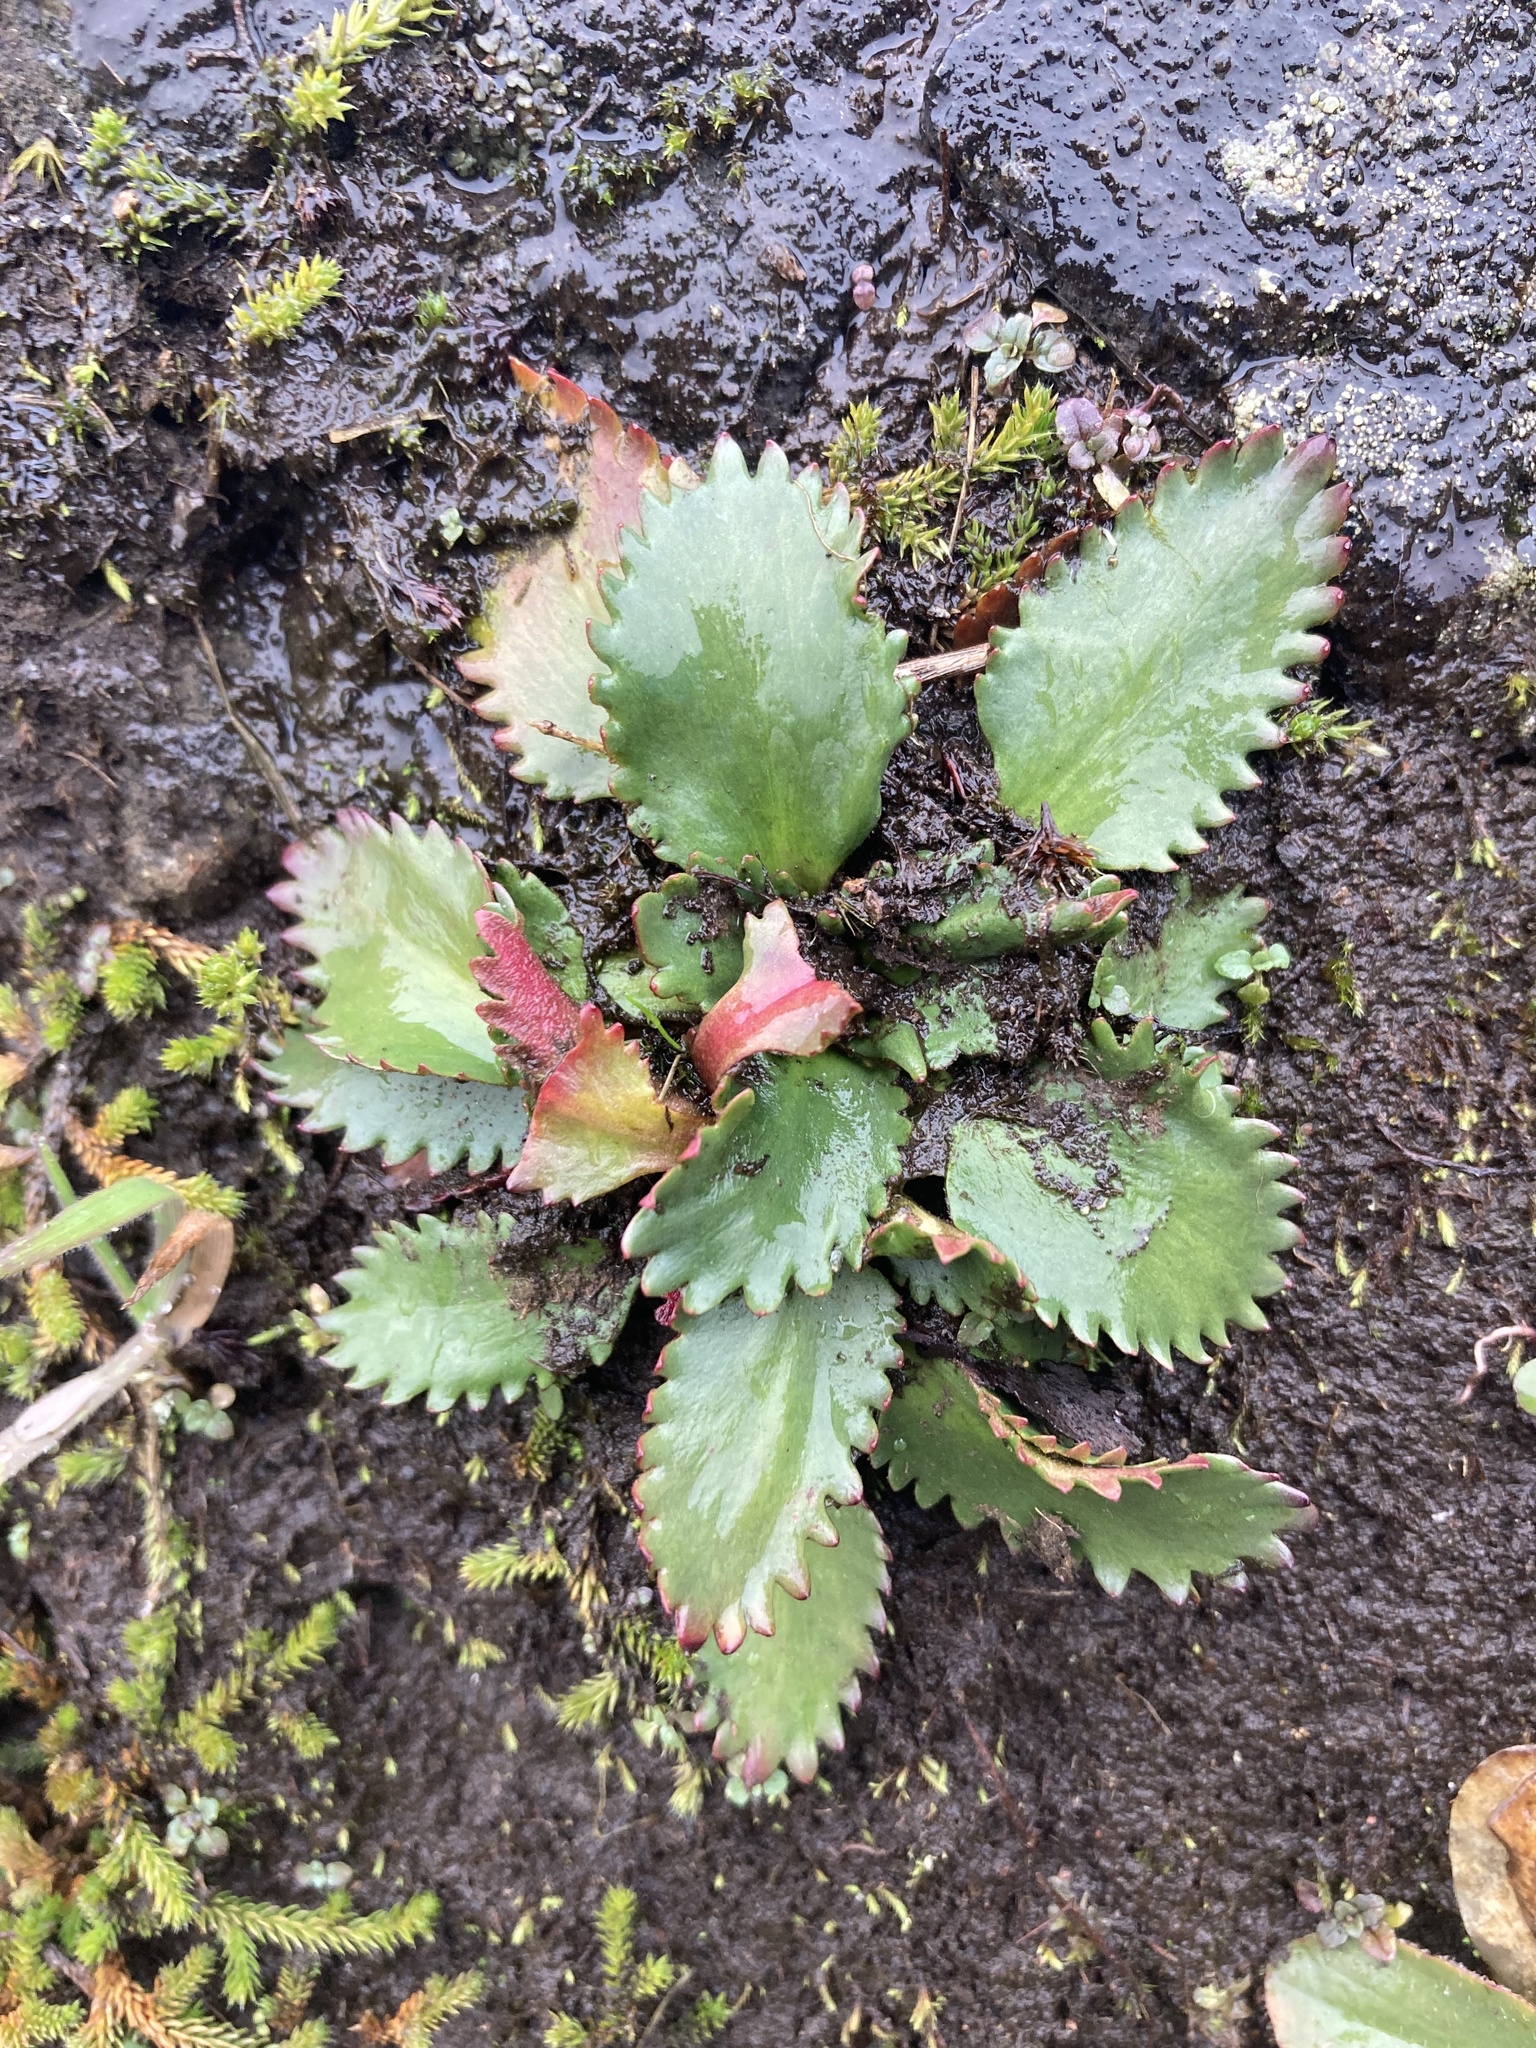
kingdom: Plantae
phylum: Tracheophyta
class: Magnoliopsida
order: Saxifragales
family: Saxifragaceae
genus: Micranthes
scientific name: Micranthes rufidula
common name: Rustyhair saxifrage
